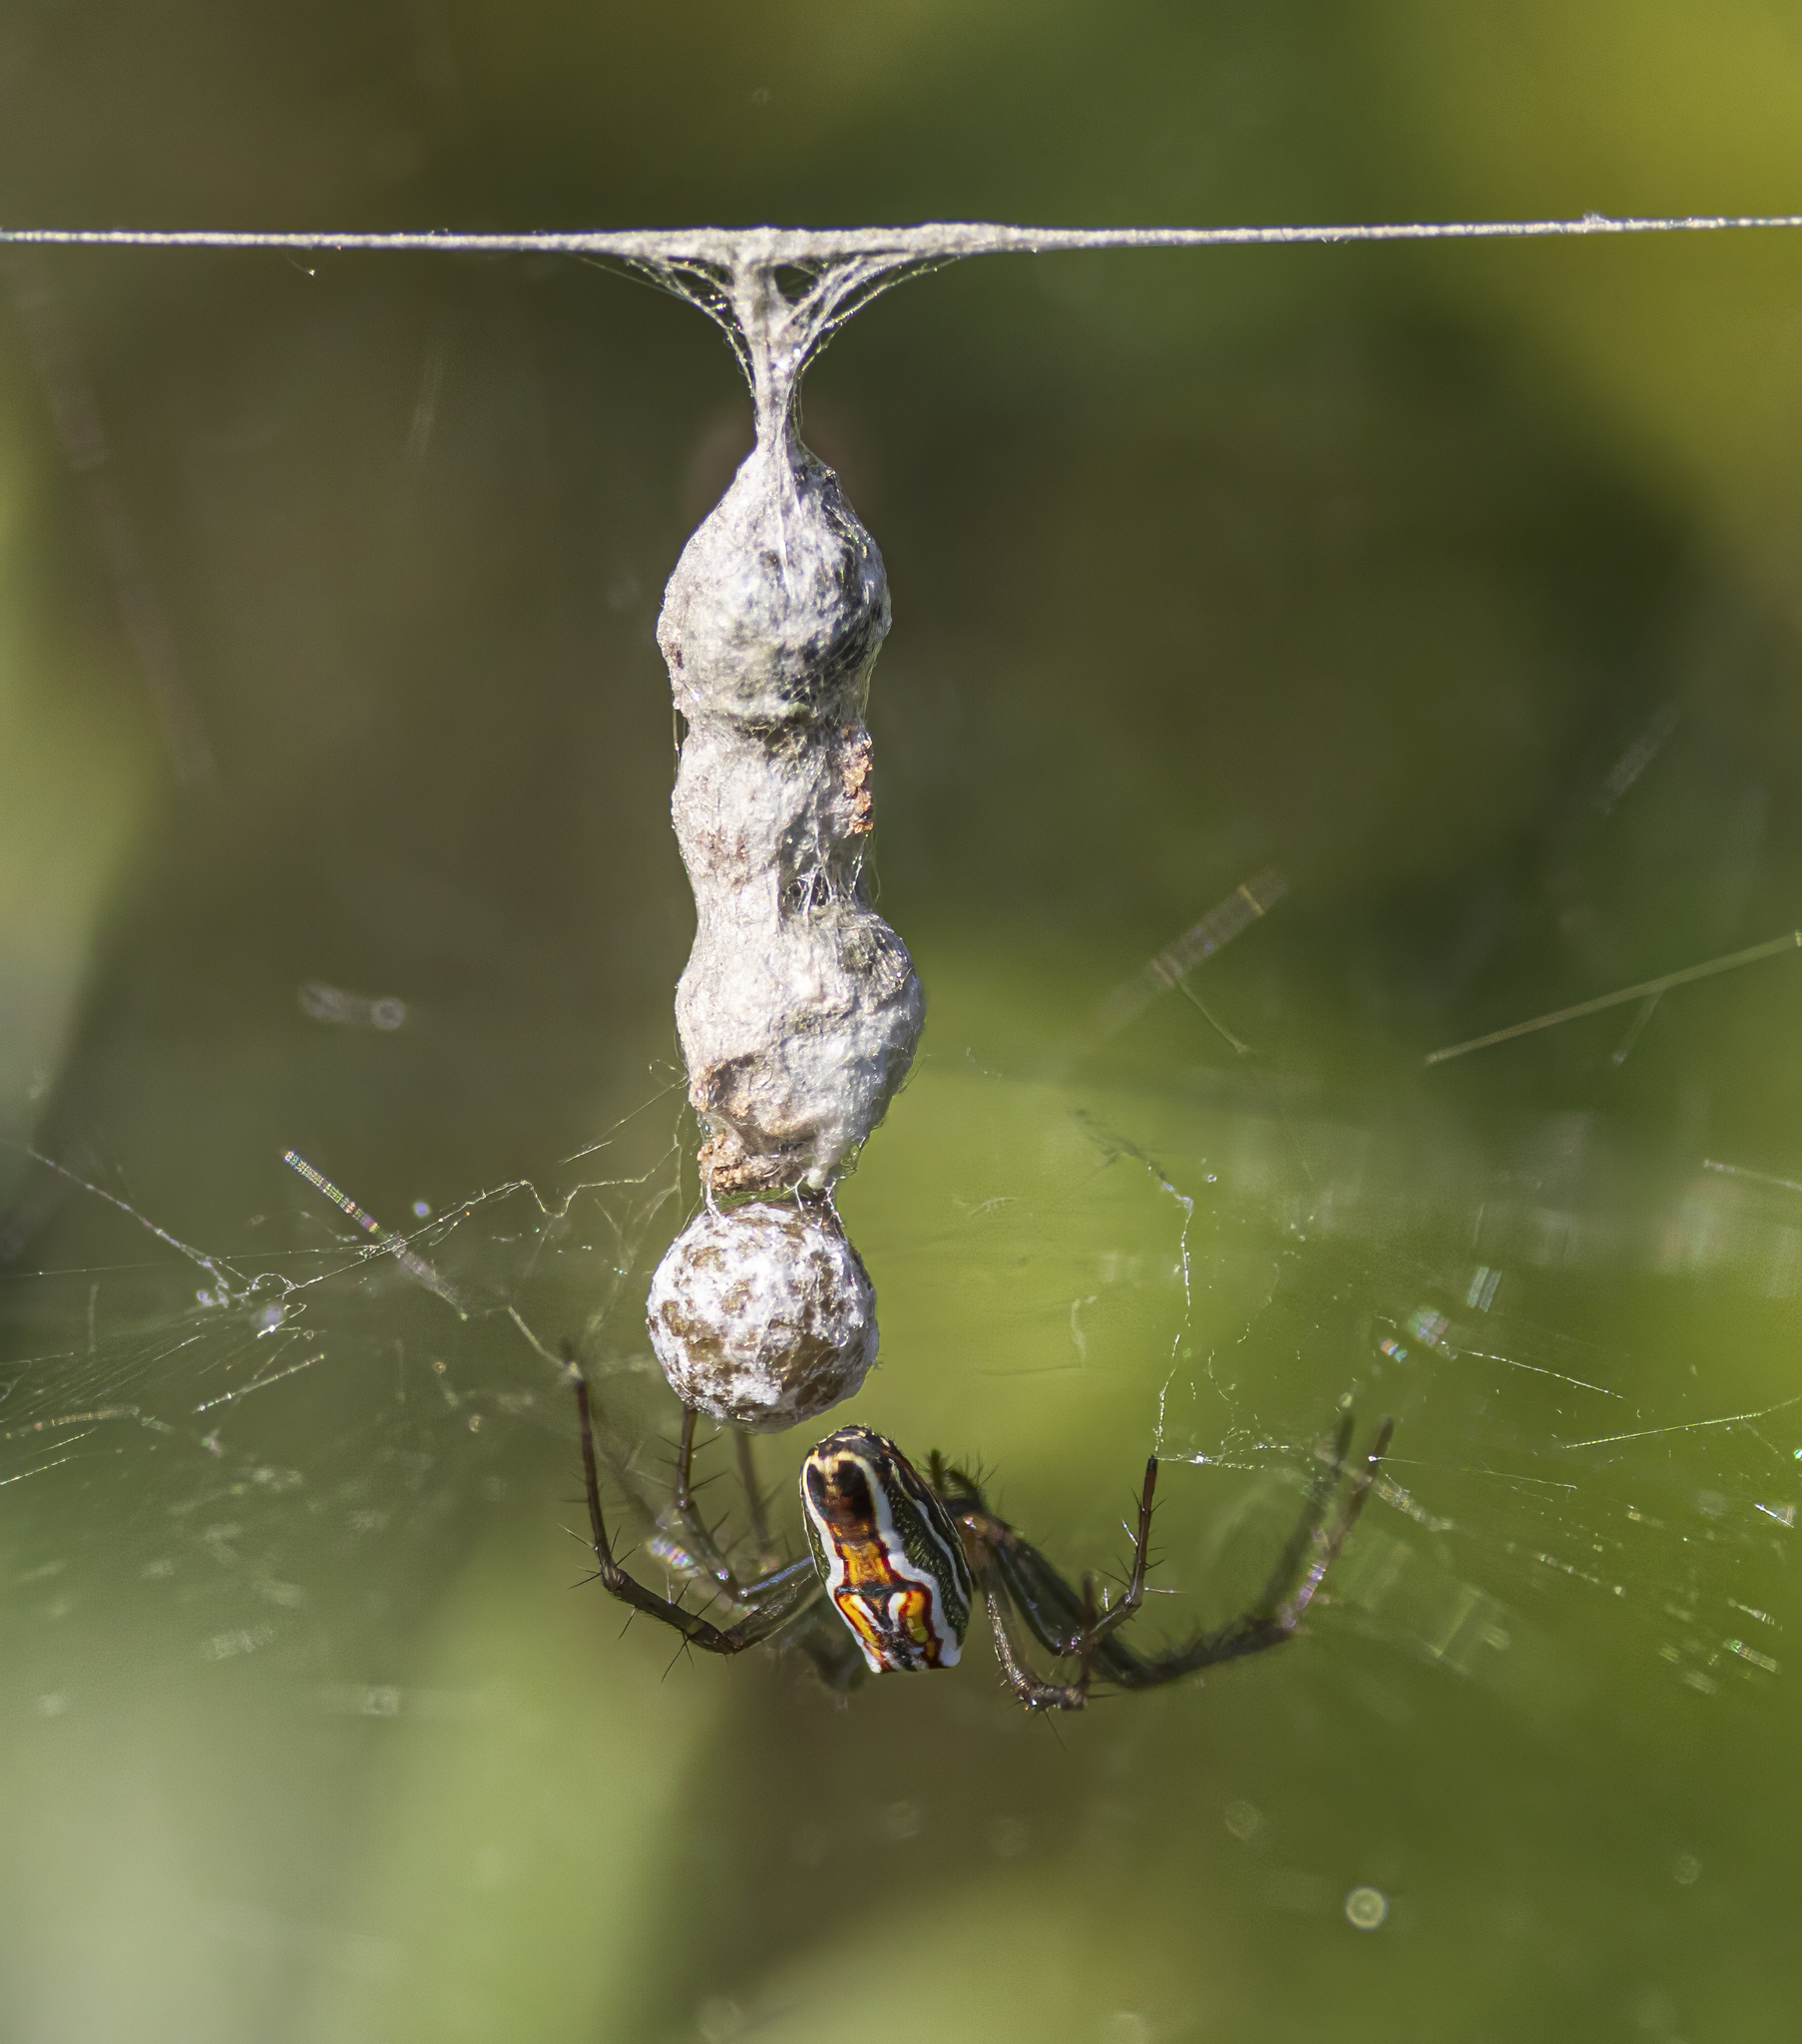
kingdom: Animalia
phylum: Arthropoda
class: Arachnida
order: Araneae
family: Araneidae
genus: Mecynogea
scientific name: Mecynogea lemniscata
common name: Orb weavers
